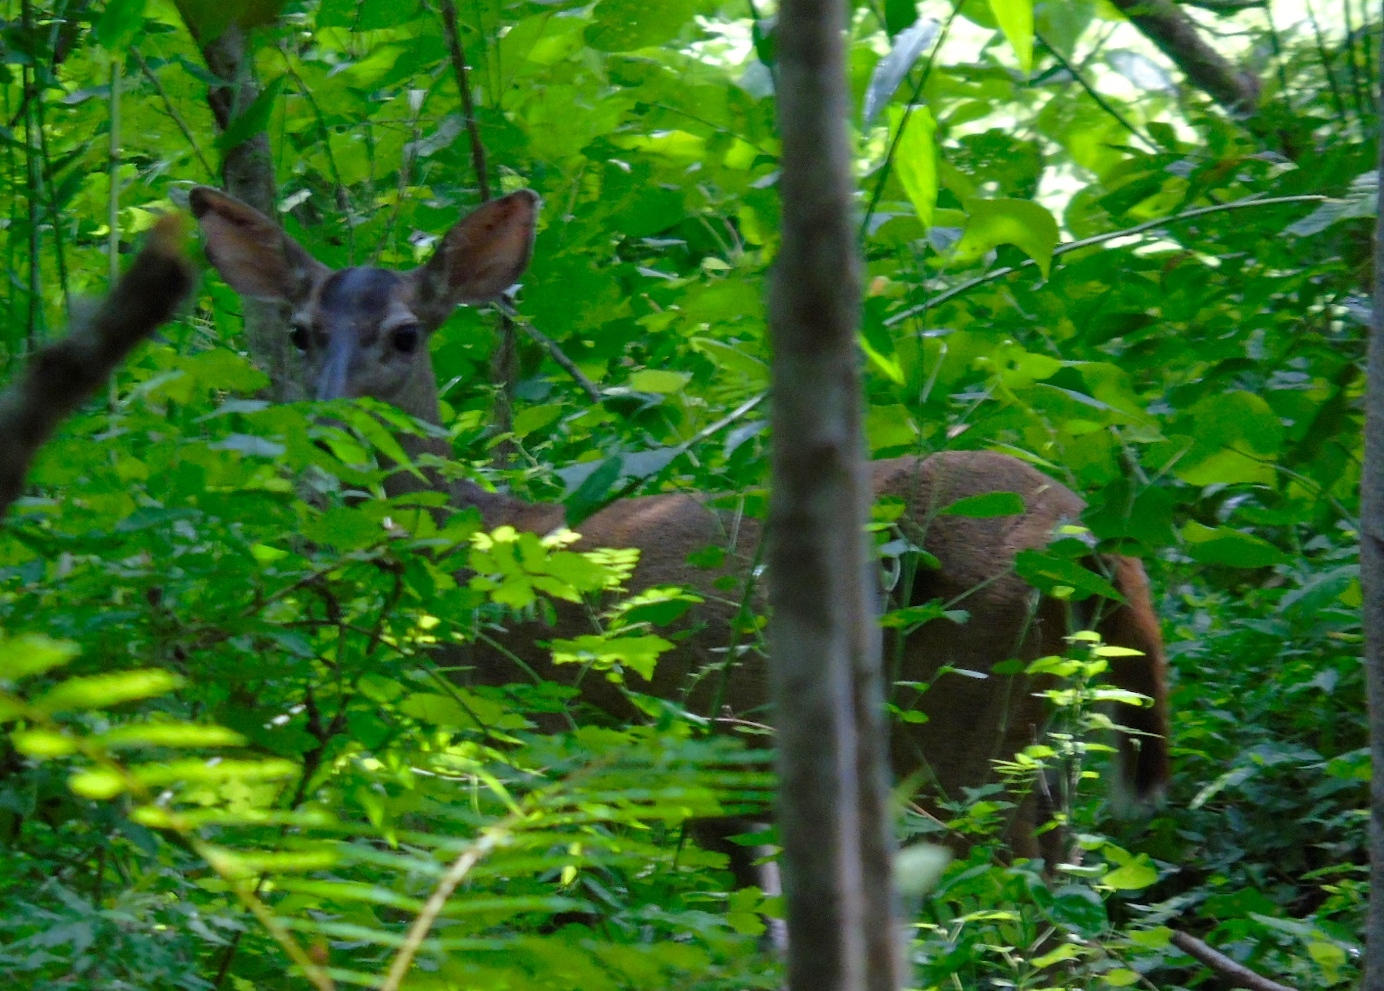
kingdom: Animalia
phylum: Chordata
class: Mammalia
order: Artiodactyla
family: Cervidae
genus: Odocoileus
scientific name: Odocoileus virginianus
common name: White-tailed deer
